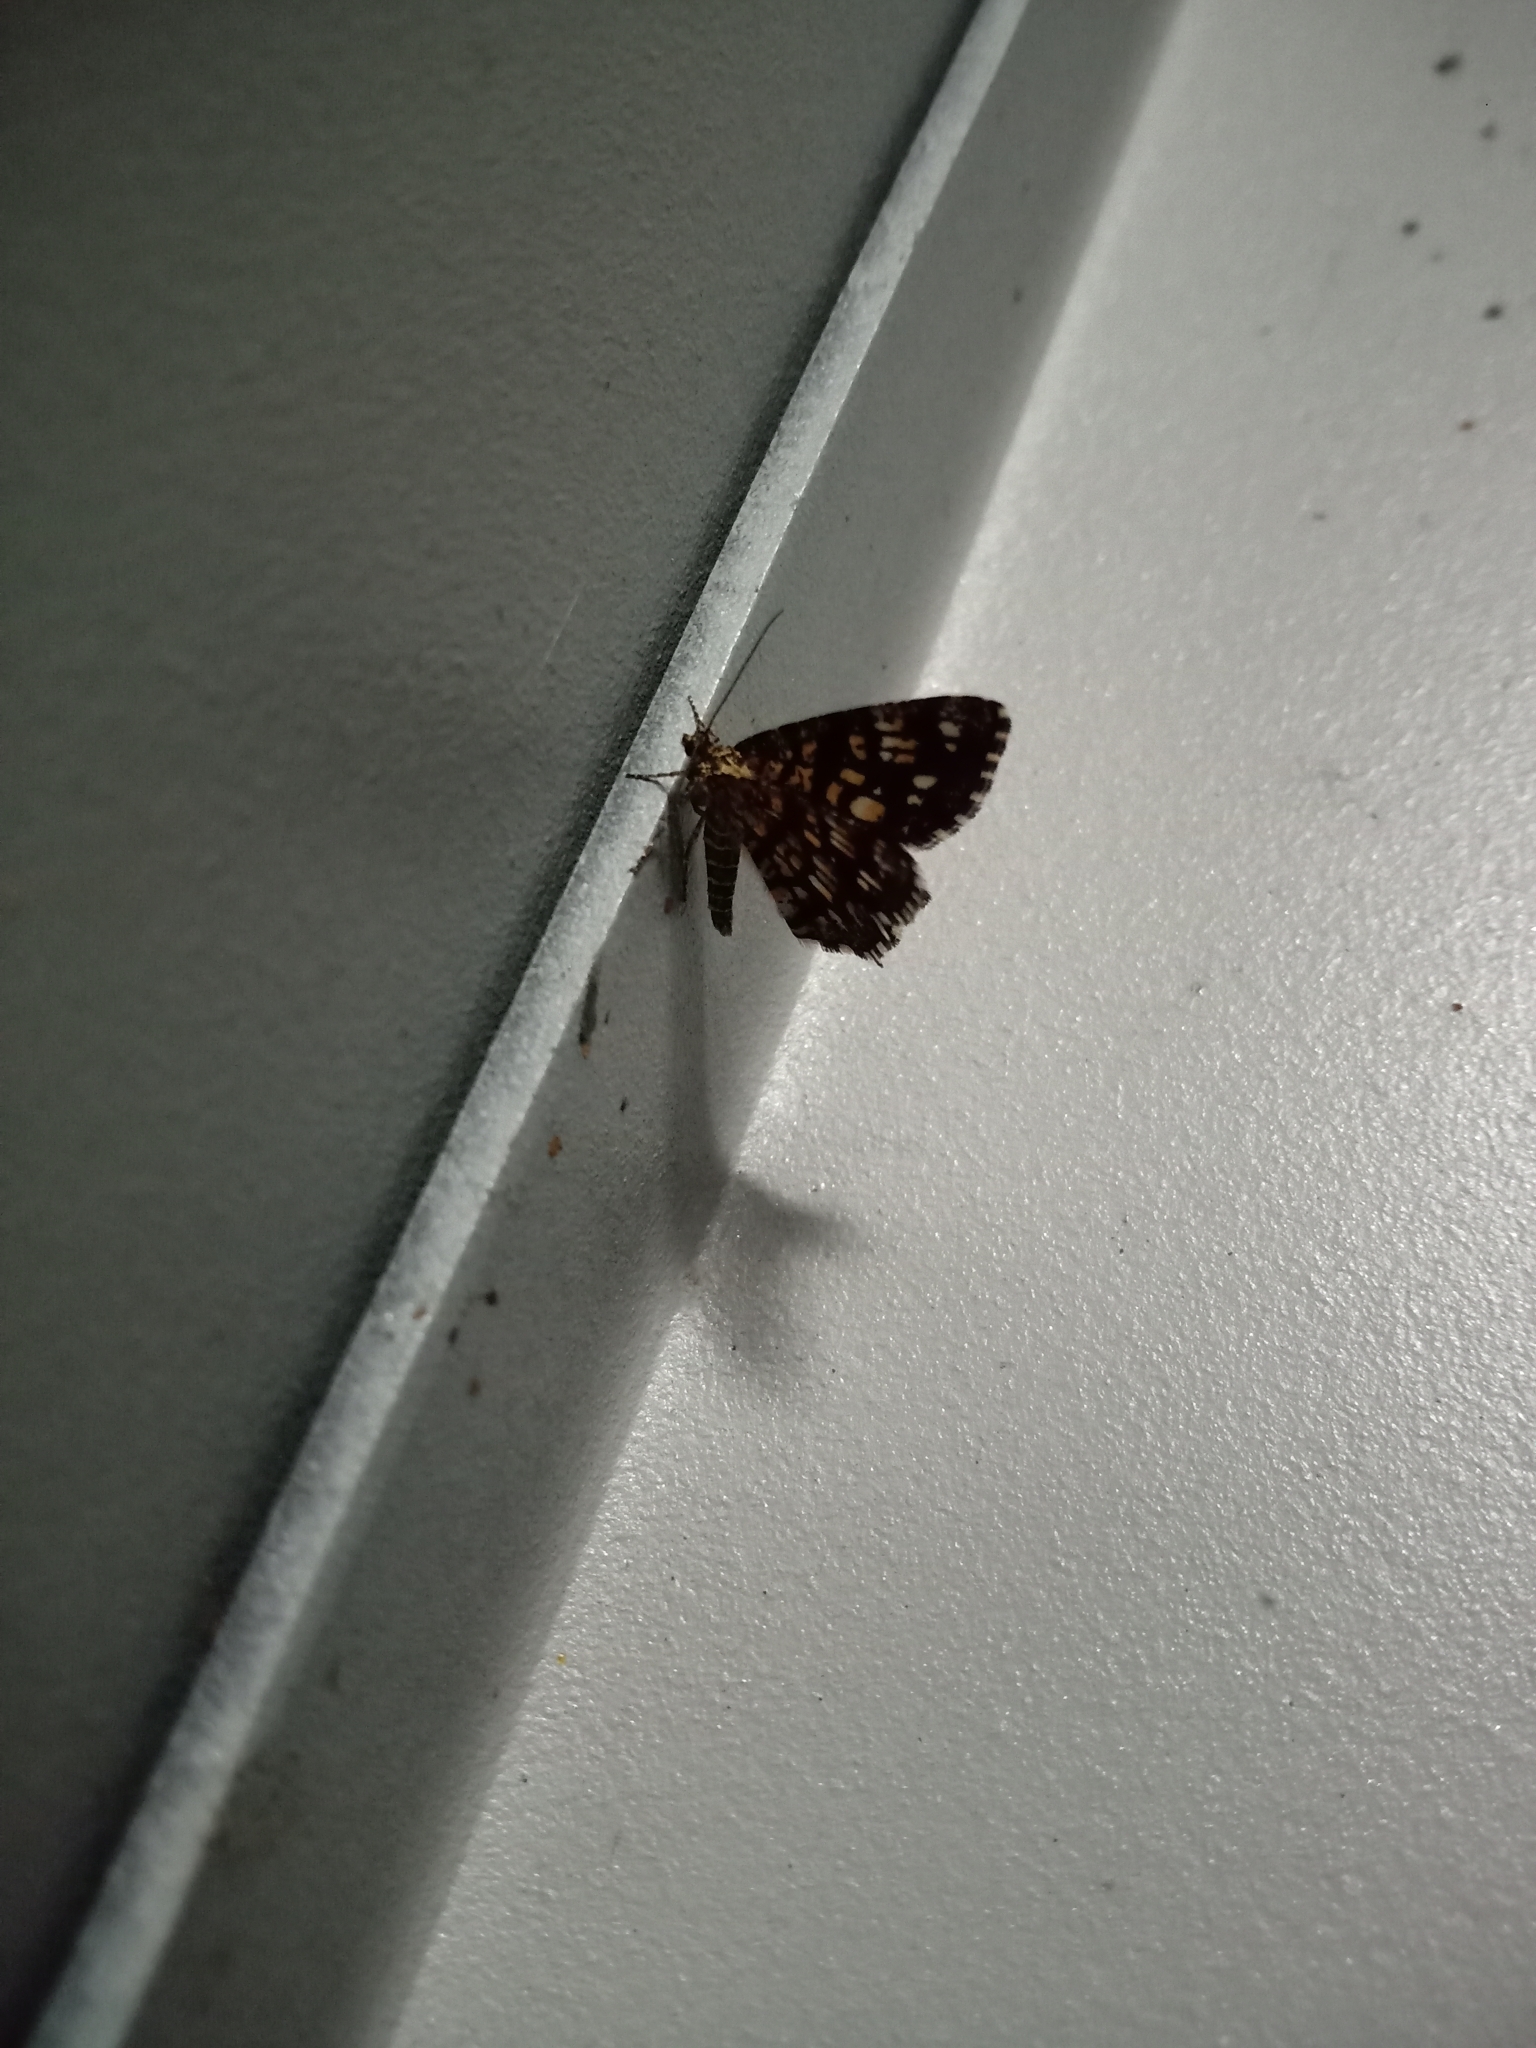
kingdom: Animalia
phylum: Arthropoda
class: Insecta
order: Lepidoptera
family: Geometridae
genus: Chiasmia
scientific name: Chiasmia clathrata
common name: Latticed heath
